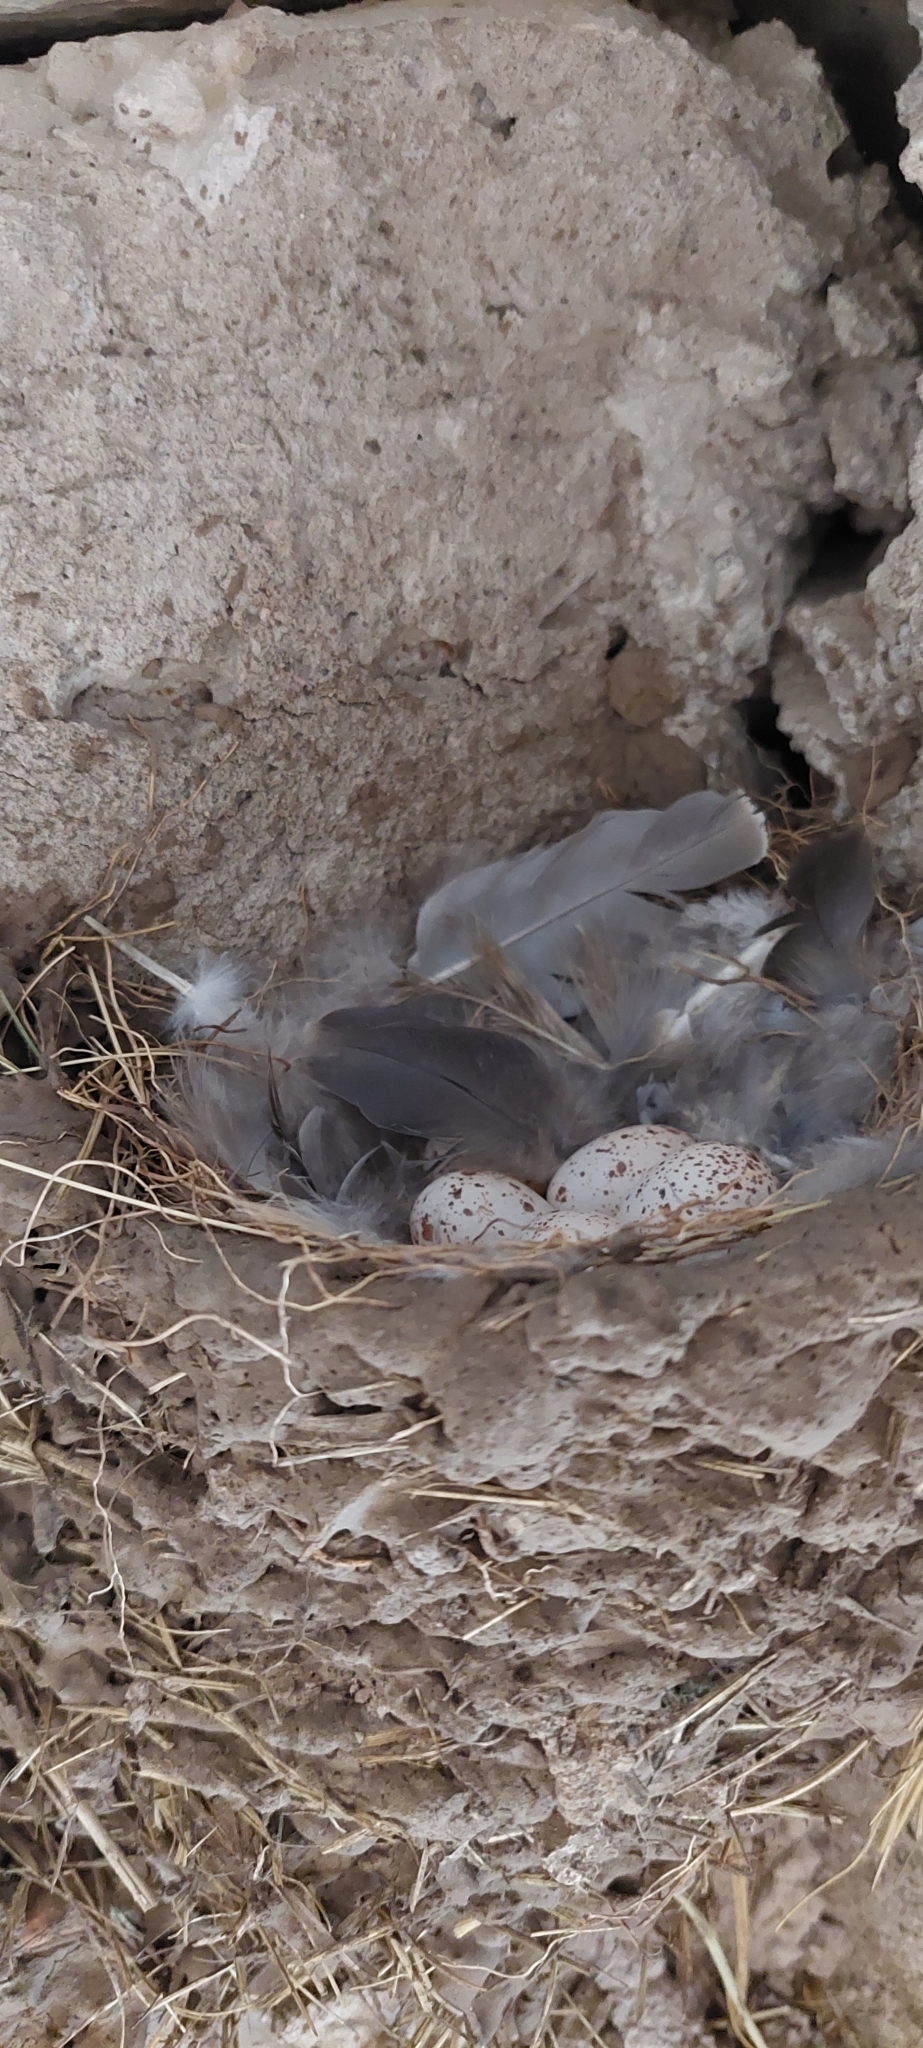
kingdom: Animalia
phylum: Chordata
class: Aves
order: Passeriformes
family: Hirundinidae
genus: Hirundo
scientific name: Hirundo rustica
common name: Barn swallow
